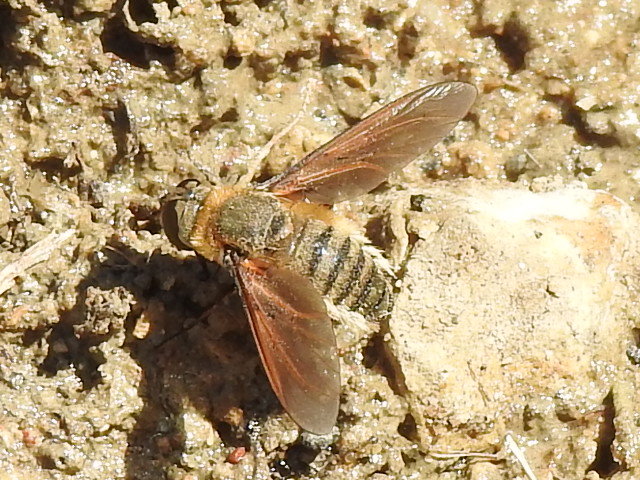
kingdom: Animalia
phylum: Arthropoda
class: Insecta
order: Diptera
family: Bombyliidae
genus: Poecilanthrax
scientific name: Poecilanthrax lucifer
